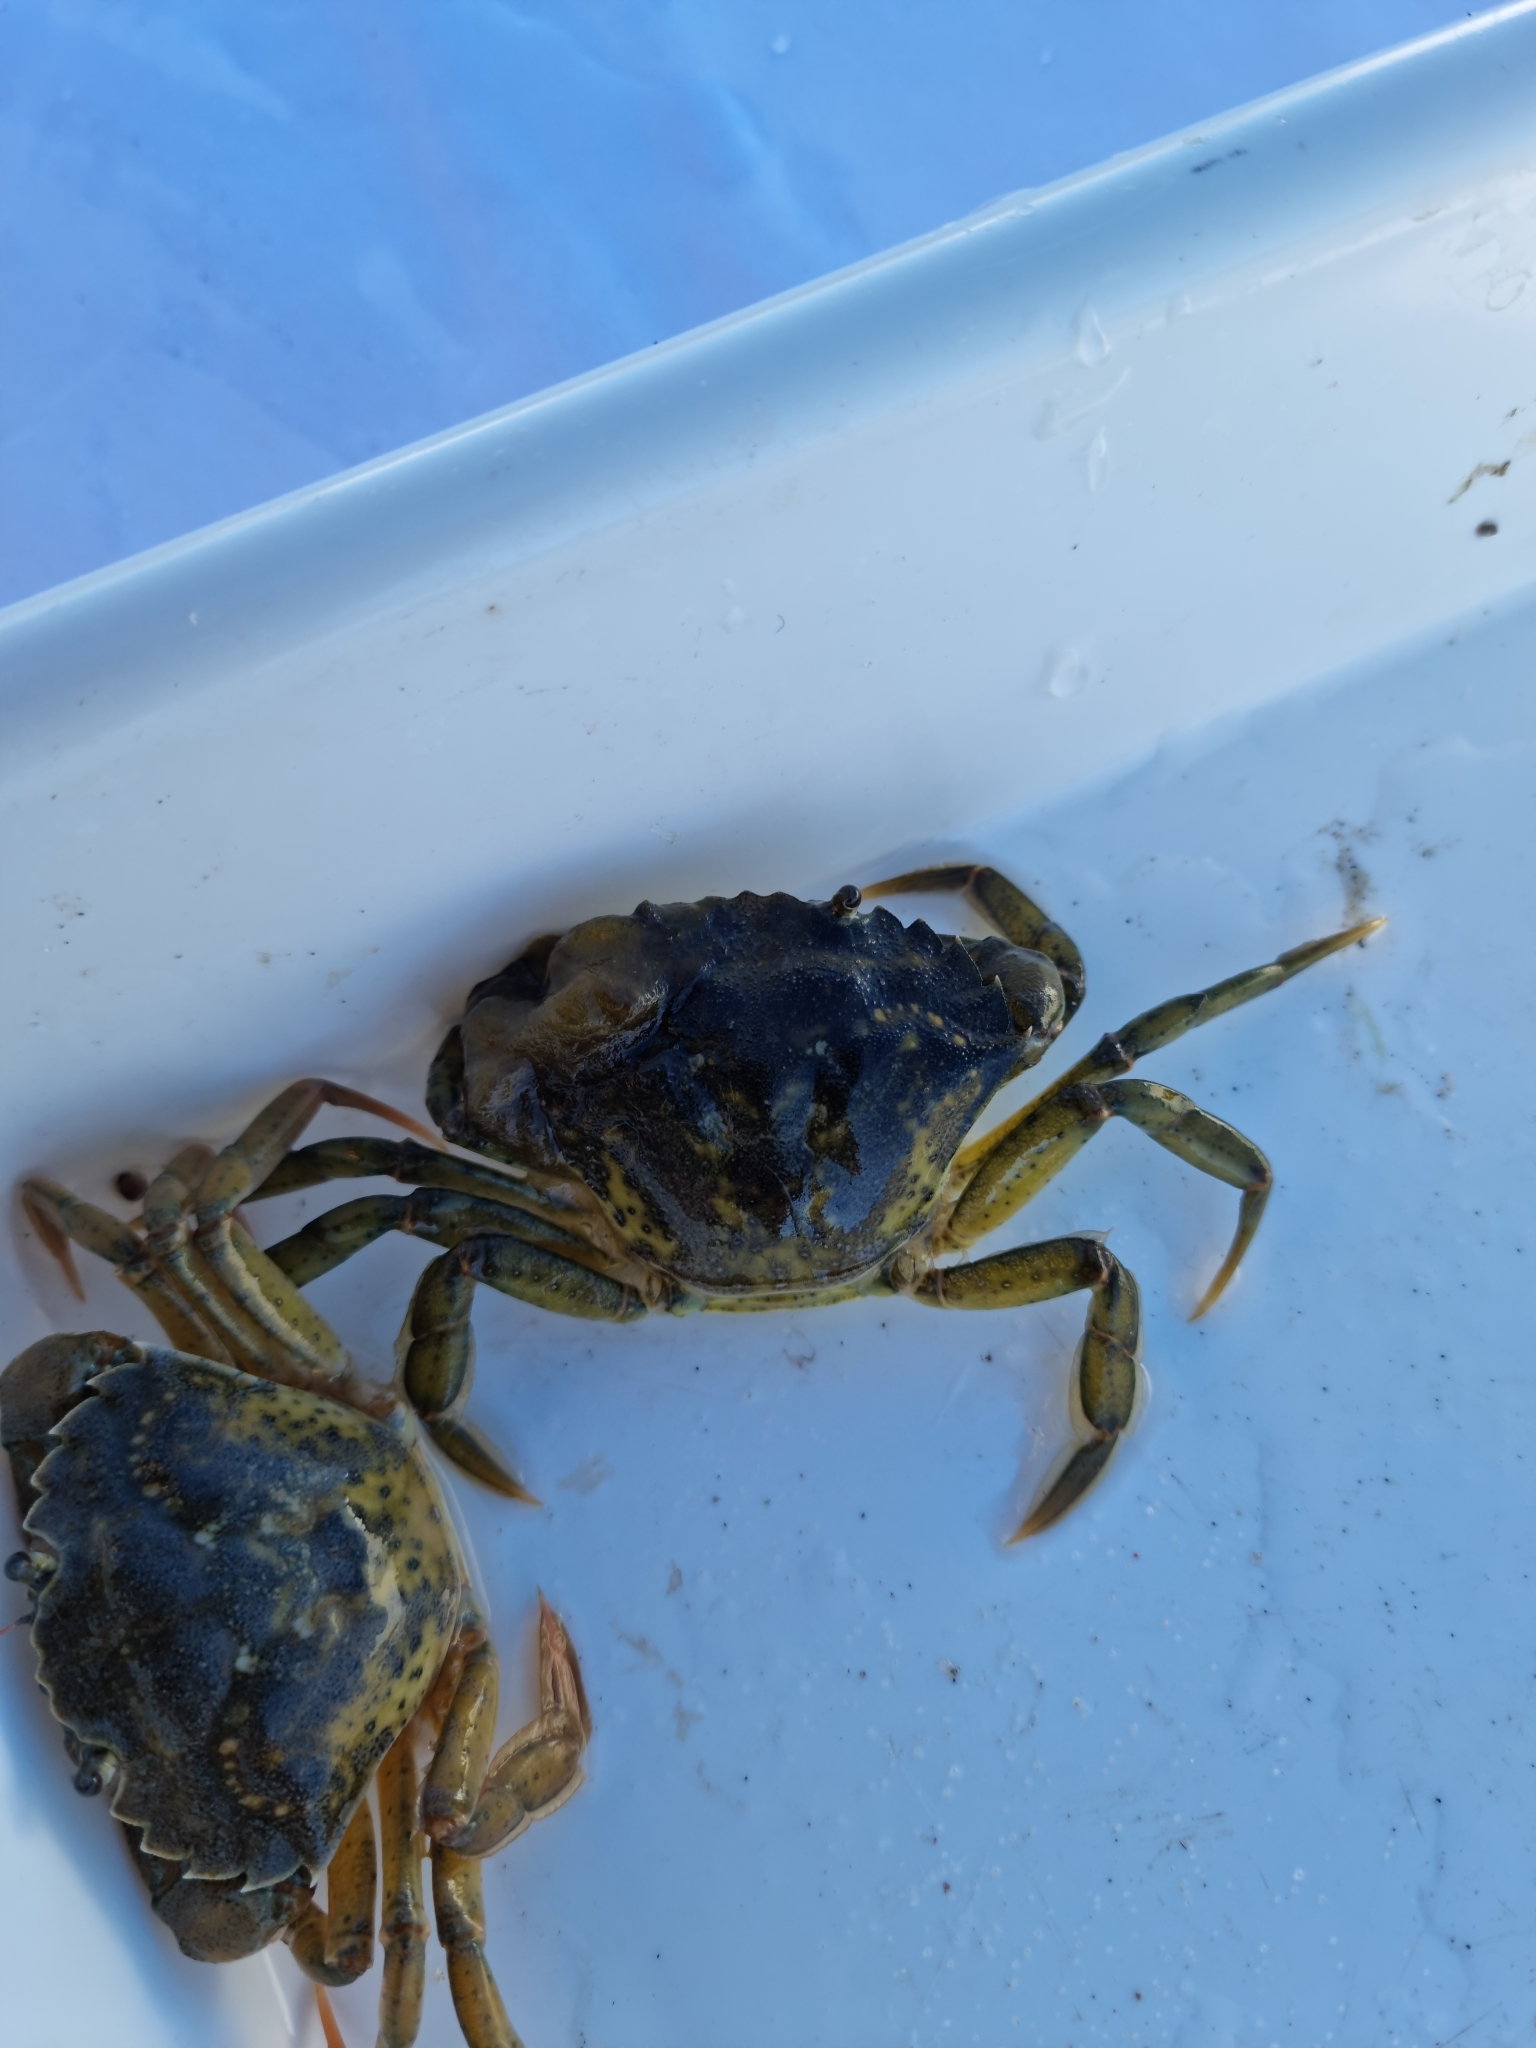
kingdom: Animalia
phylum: Arthropoda
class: Malacostraca
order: Decapoda
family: Carcinidae
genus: Carcinus
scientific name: Carcinus maenas
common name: European green crab
